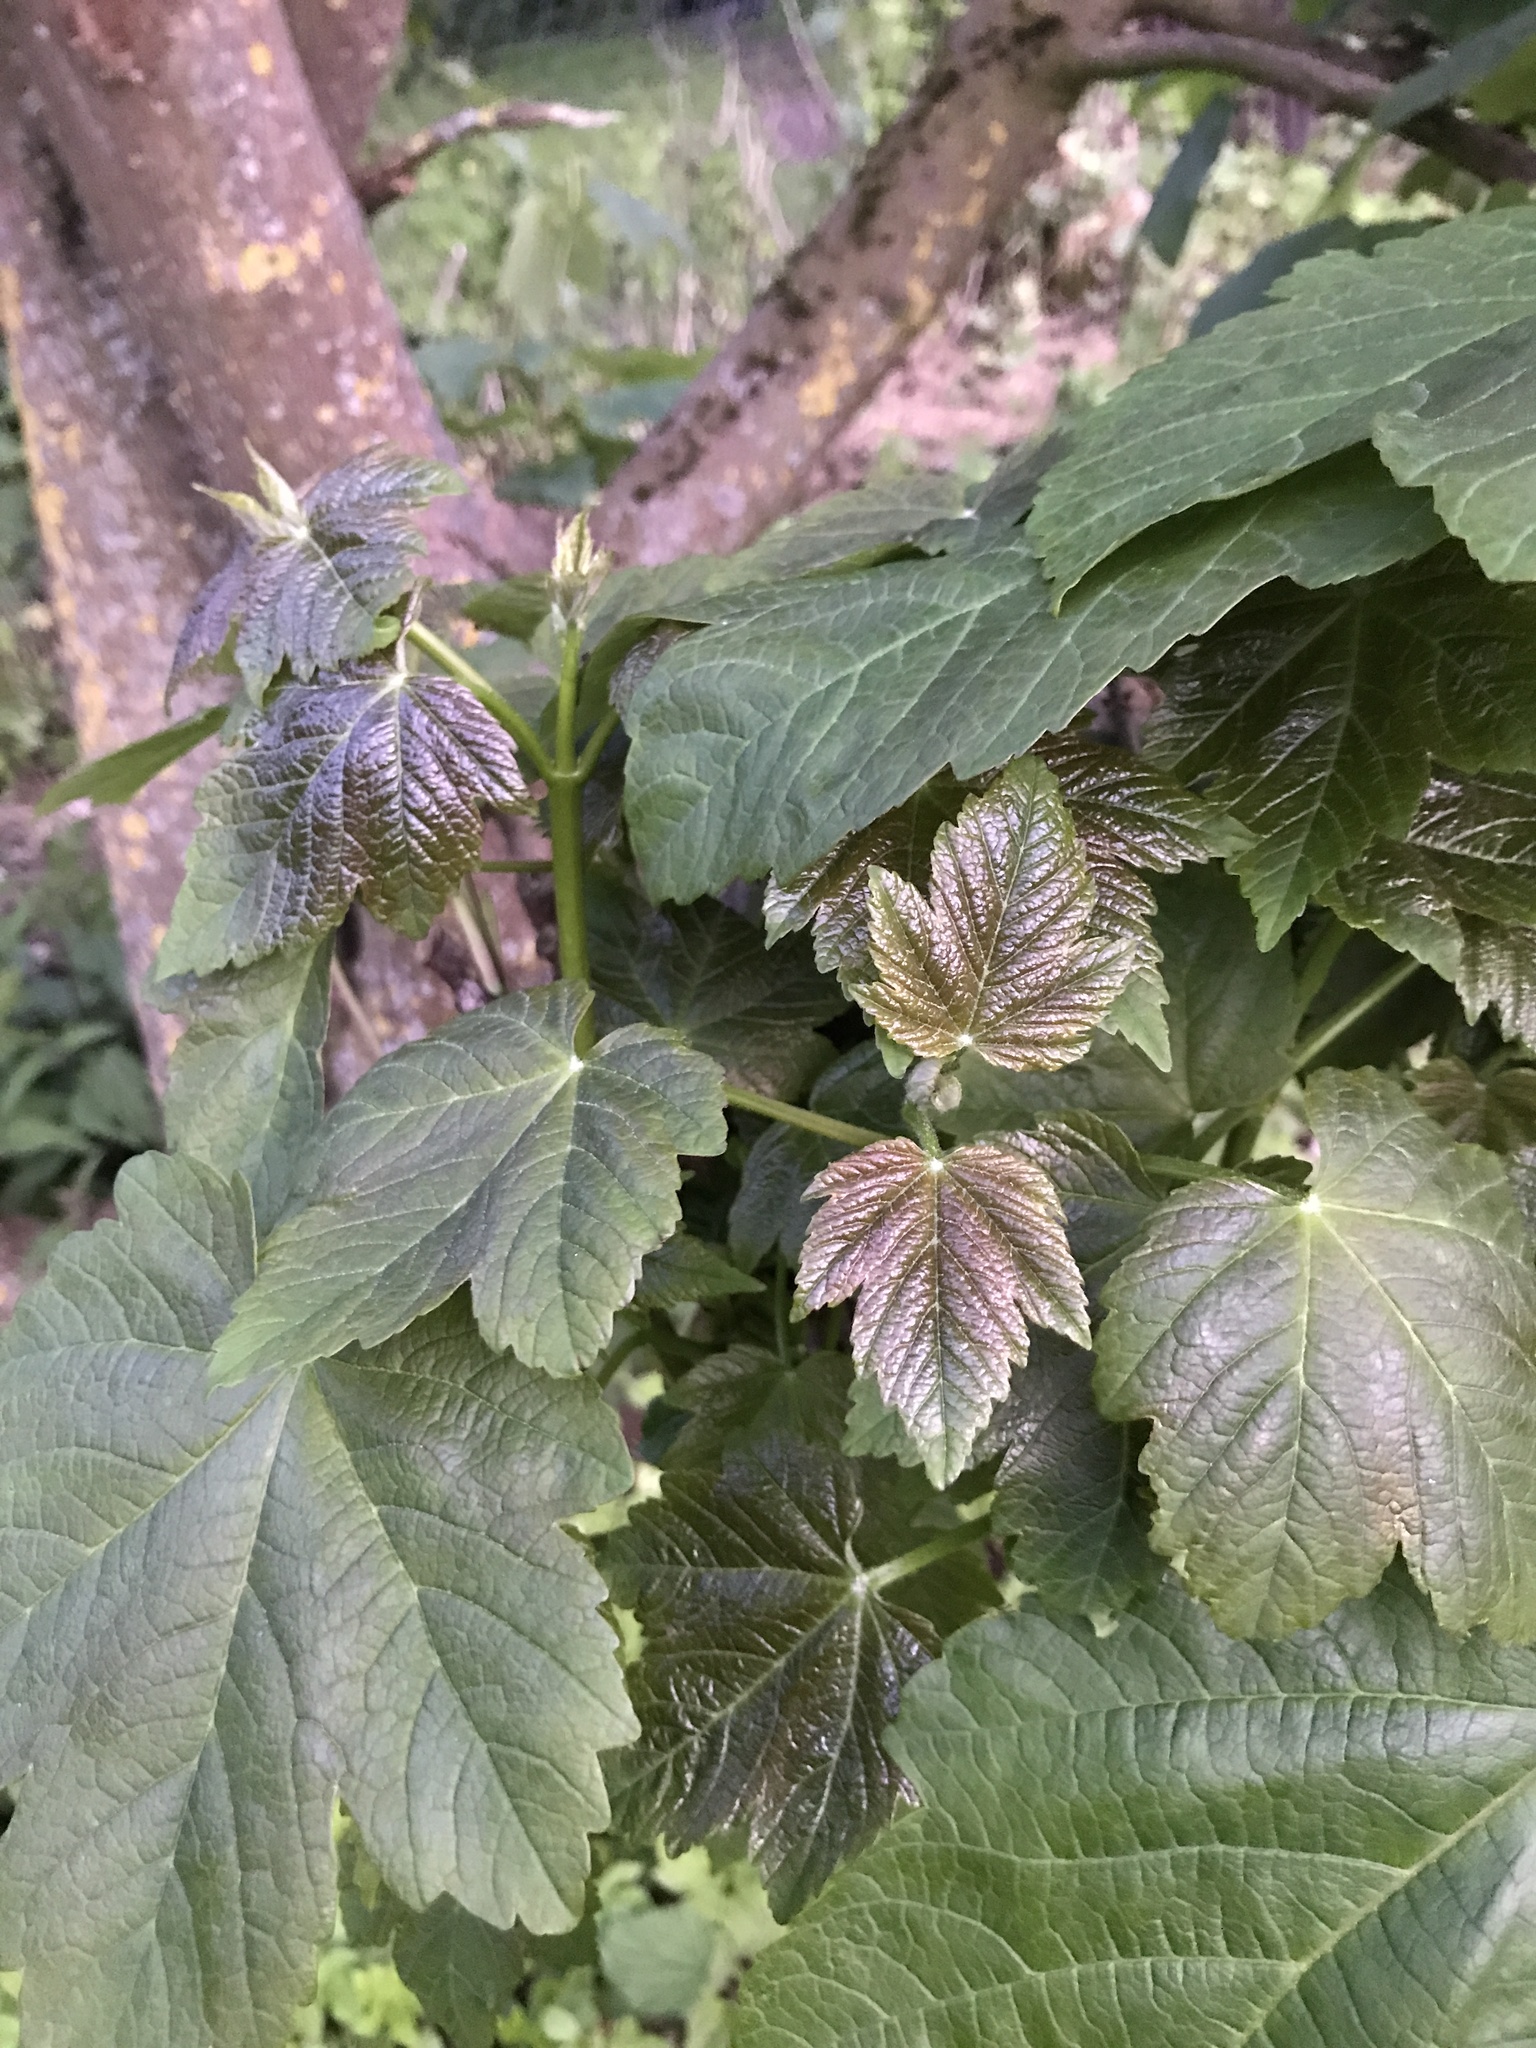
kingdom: Plantae
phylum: Tracheophyta
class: Magnoliopsida
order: Sapindales
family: Sapindaceae
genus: Acer
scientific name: Acer pseudoplatanus
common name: Sycamore
